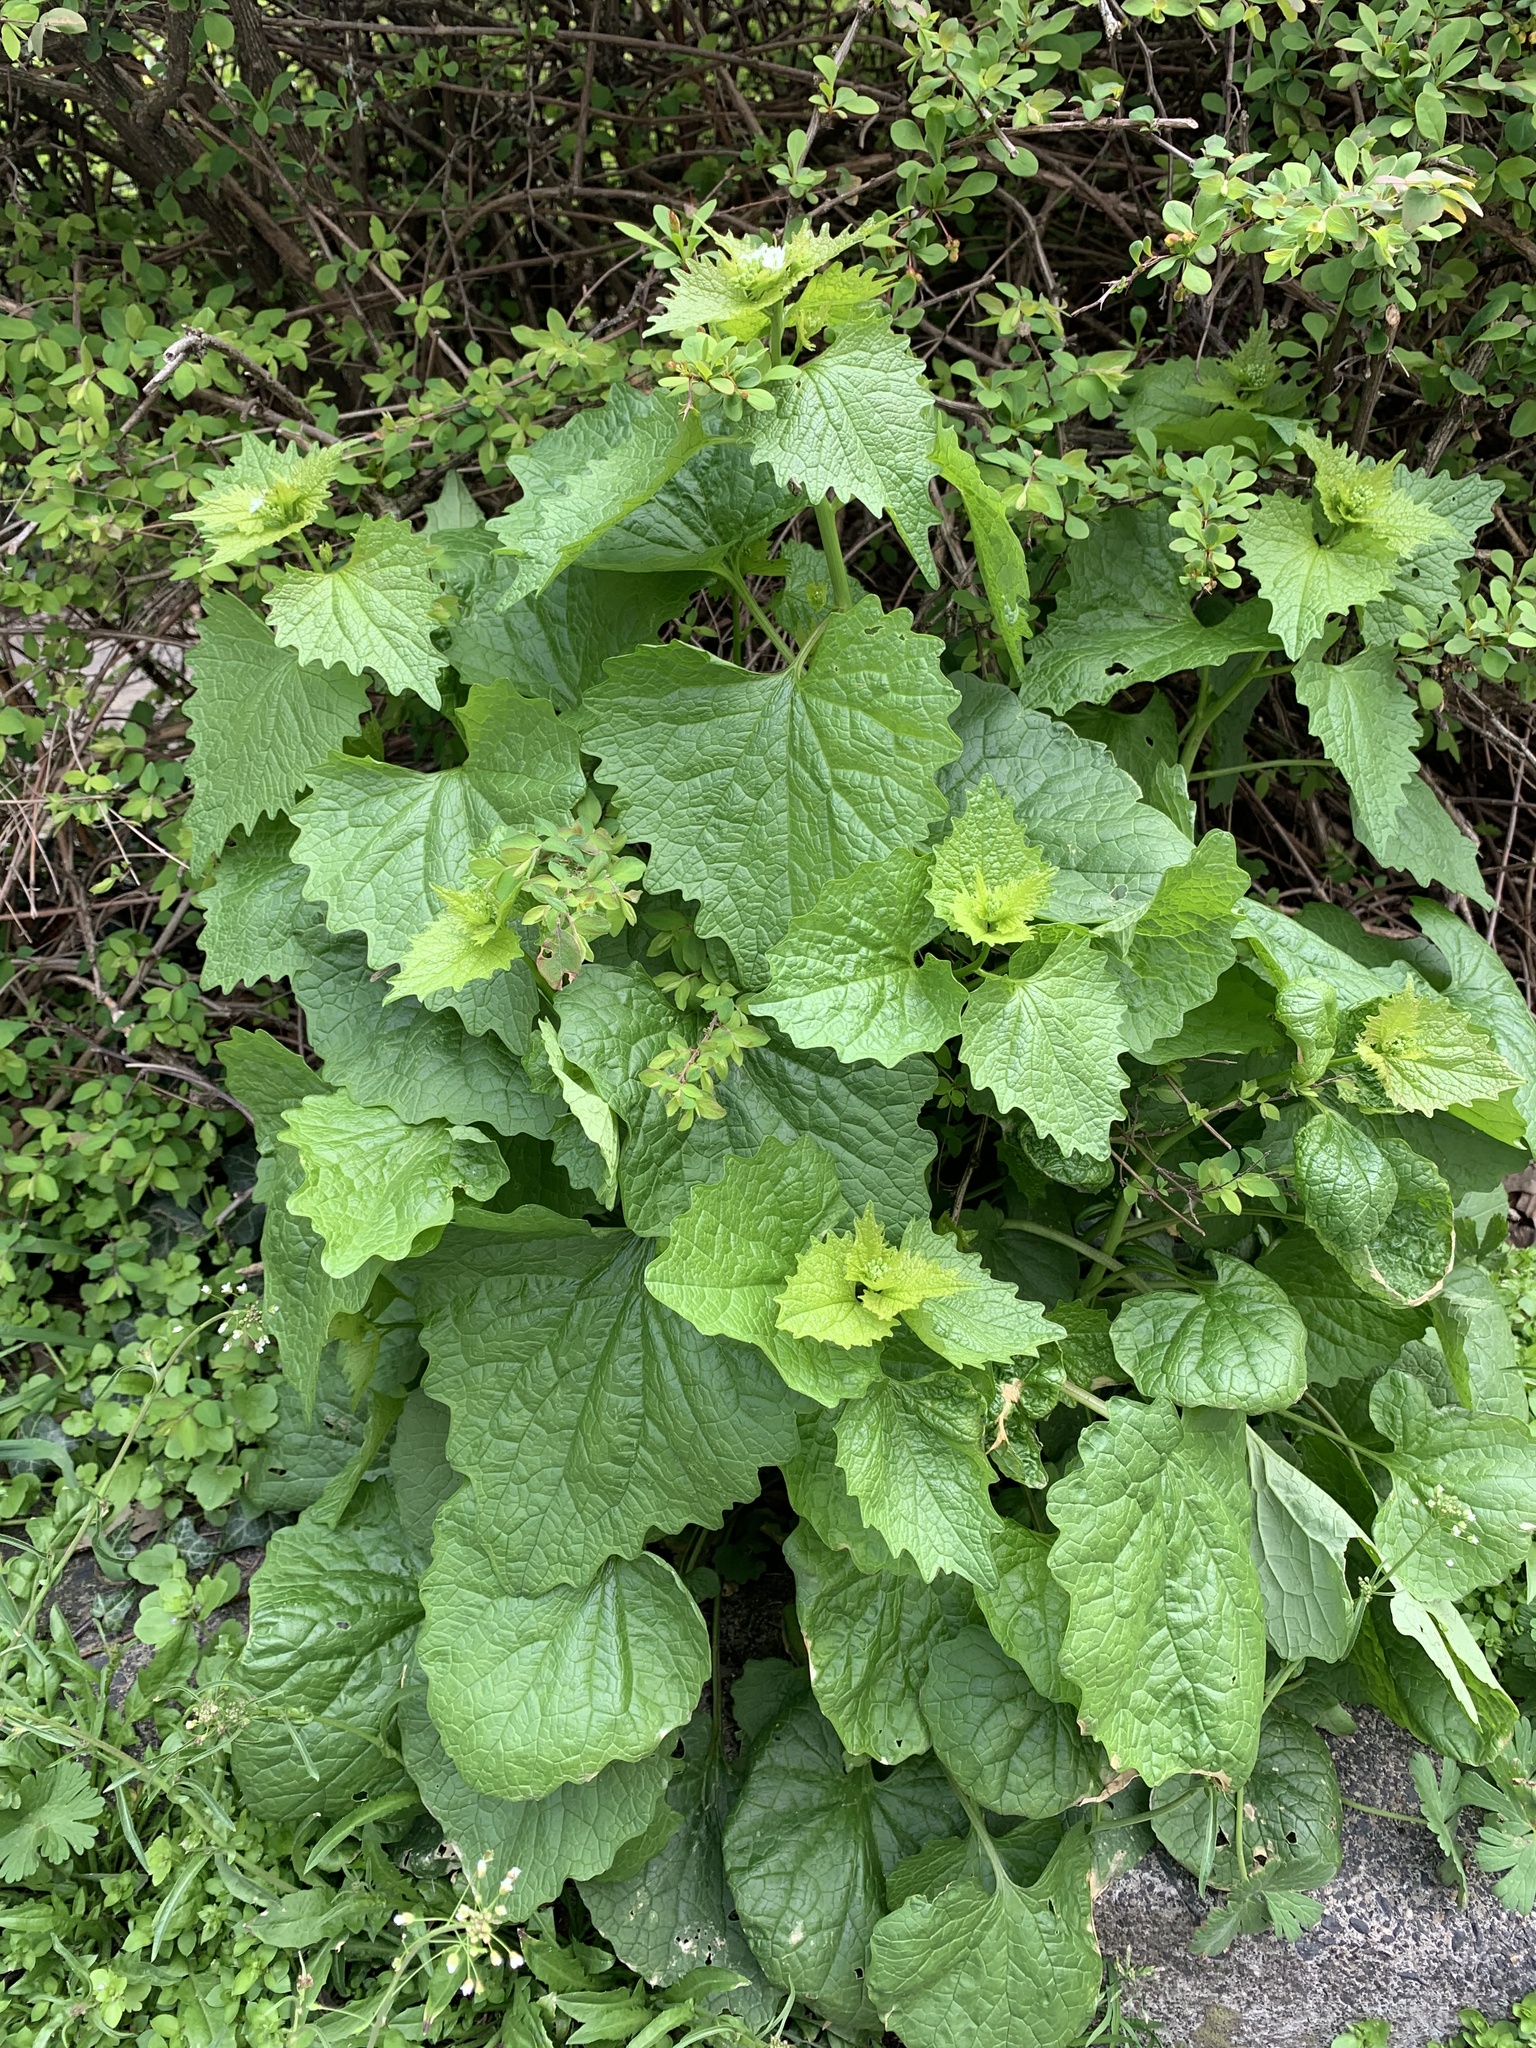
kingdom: Plantae
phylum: Tracheophyta
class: Magnoliopsida
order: Brassicales
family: Brassicaceae
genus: Alliaria
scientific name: Alliaria petiolata
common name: Garlic mustard
